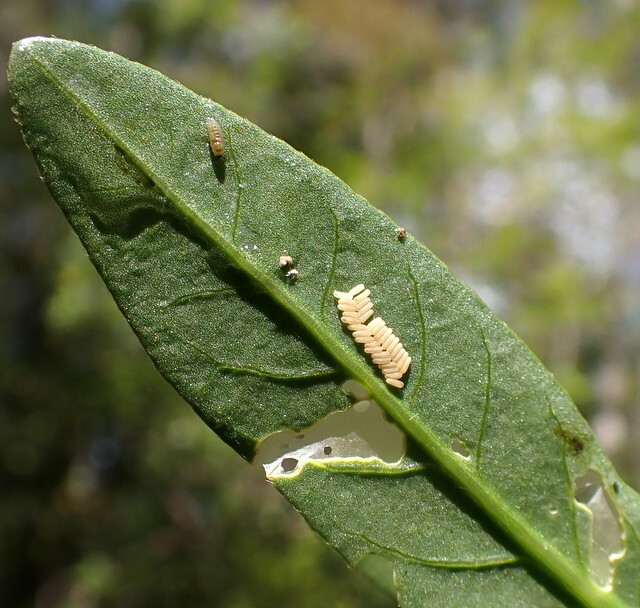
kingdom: Animalia
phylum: Arthropoda
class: Insecta
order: Coleoptera
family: Chrysomelidae
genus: Agasicles
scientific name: Agasicles hygrophila
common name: Alligatorweed flea beetle
